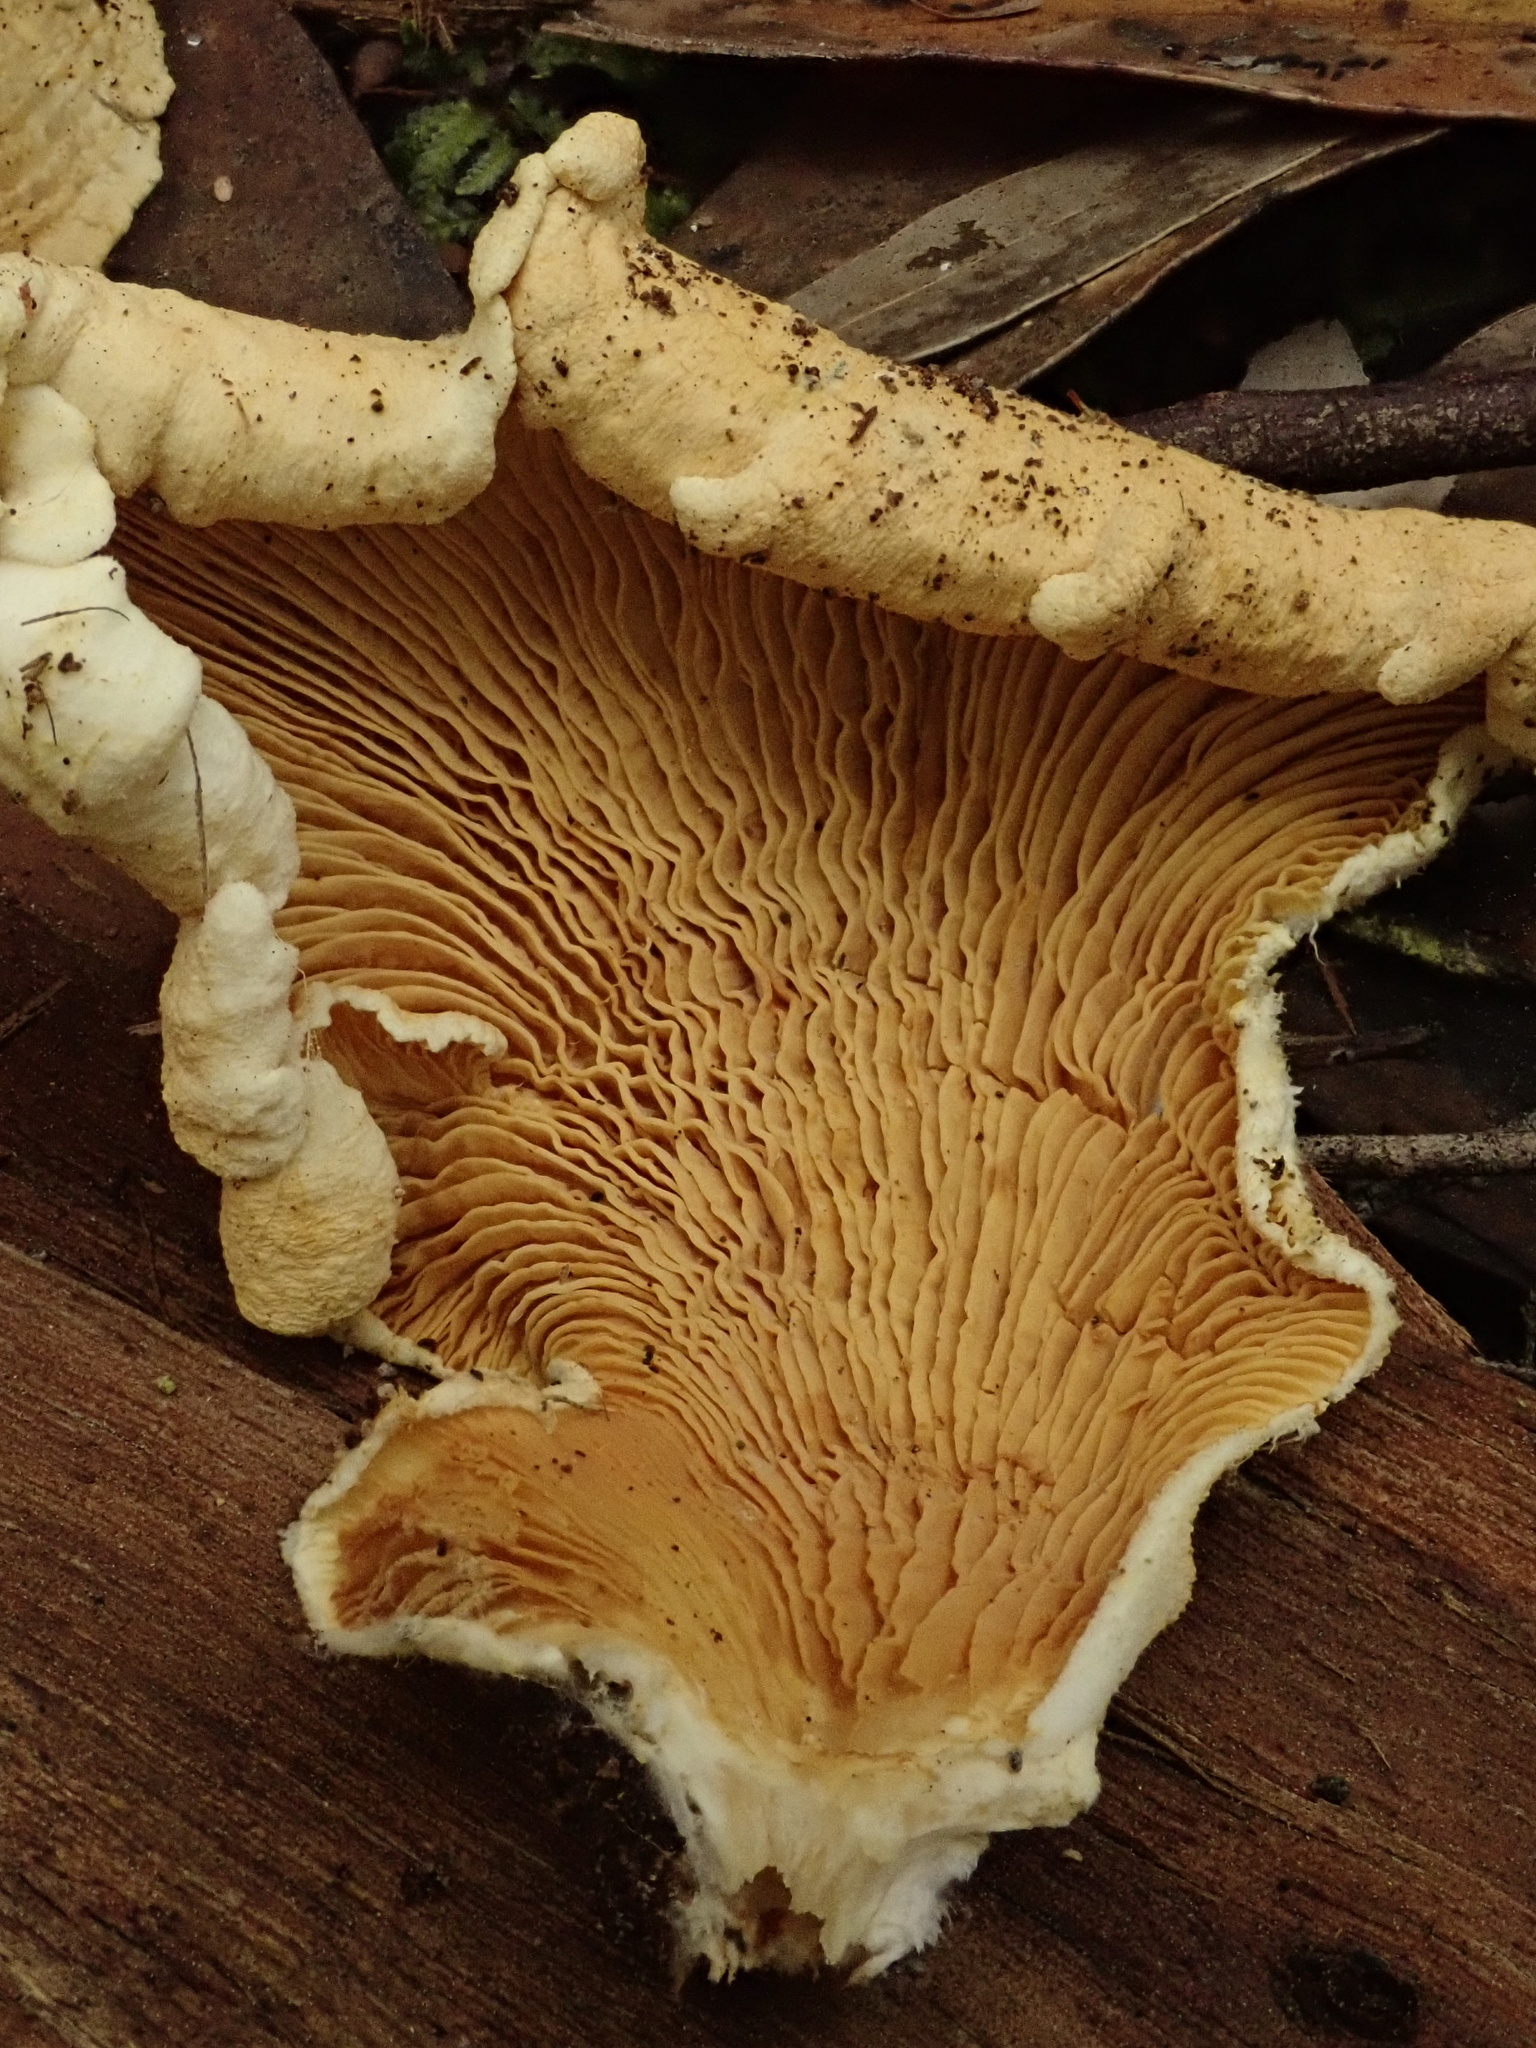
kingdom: Fungi
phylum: Basidiomycota
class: Agaricomycetes
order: Boletales
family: Paxillaceae
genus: Meiorganum
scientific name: Meiorganum curtisii
